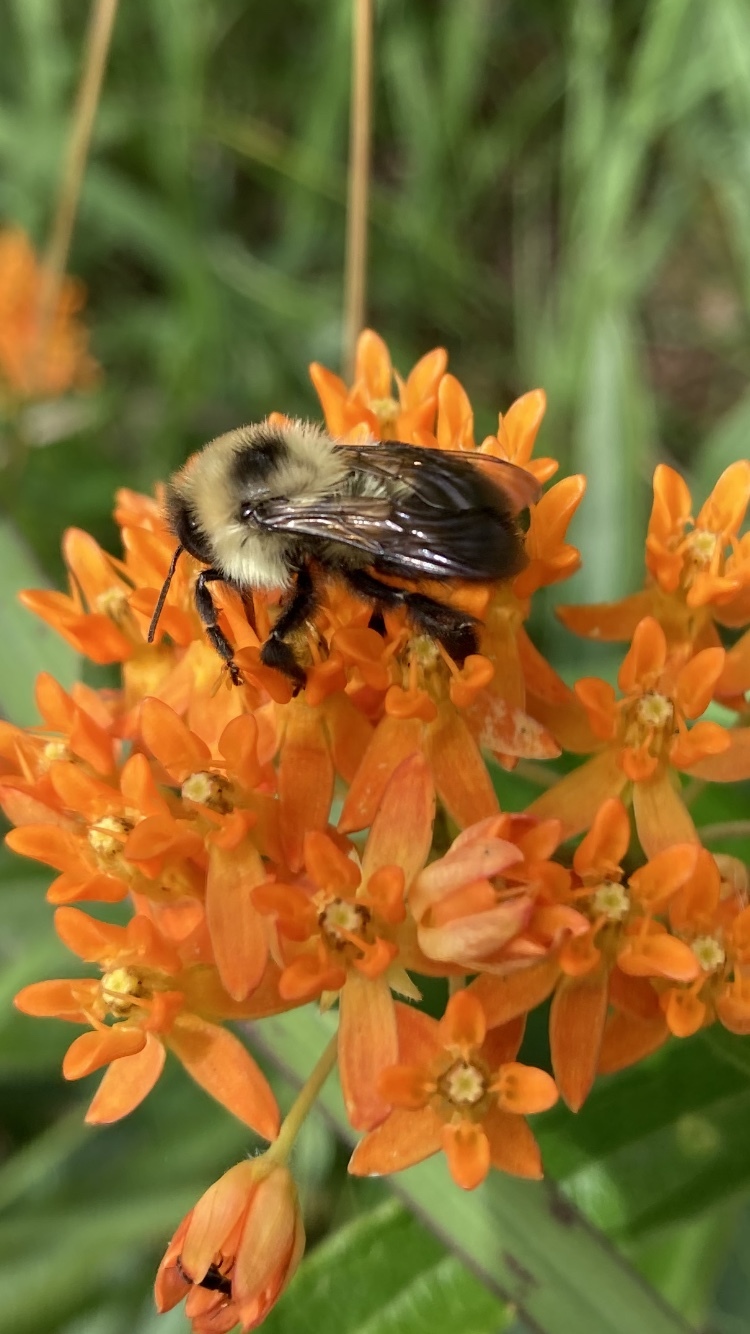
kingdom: Animalia
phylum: Arthropoda
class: Insecta
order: Hymenoptera
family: Apidae
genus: Bombus
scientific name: Bombus bimaculatus
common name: Two-spotted bumble bee
